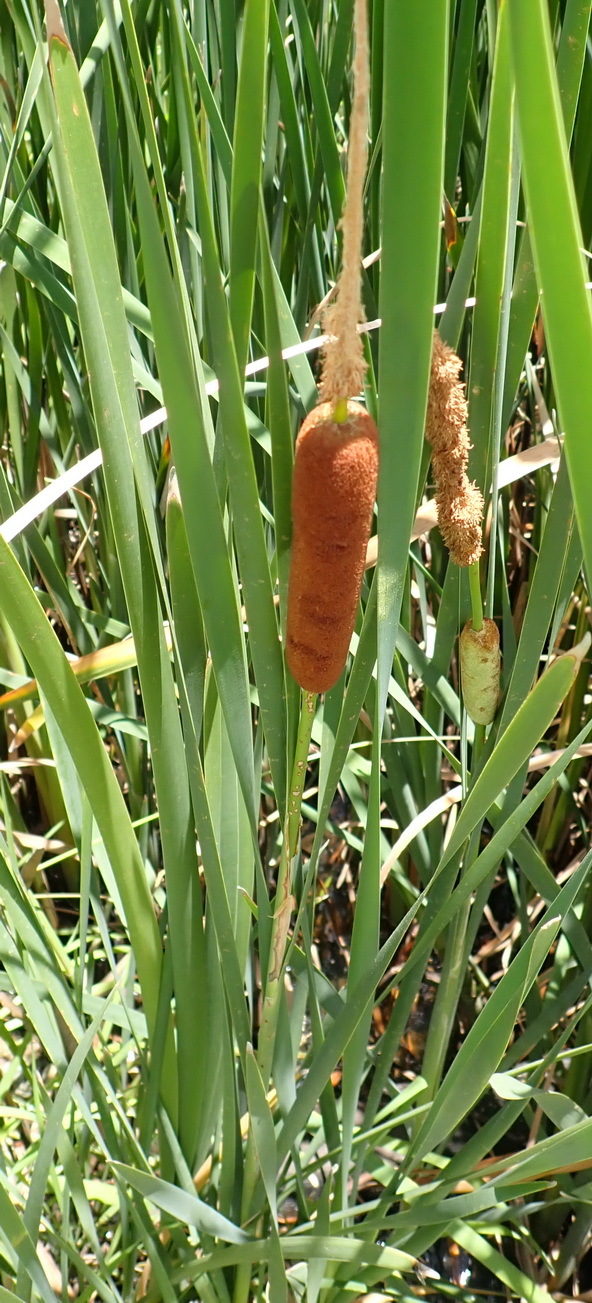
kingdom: Plantae
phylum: Tracheophyta
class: Liliopsida
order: Poales
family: Typhaceae
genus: Typha
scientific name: Typha capensis
